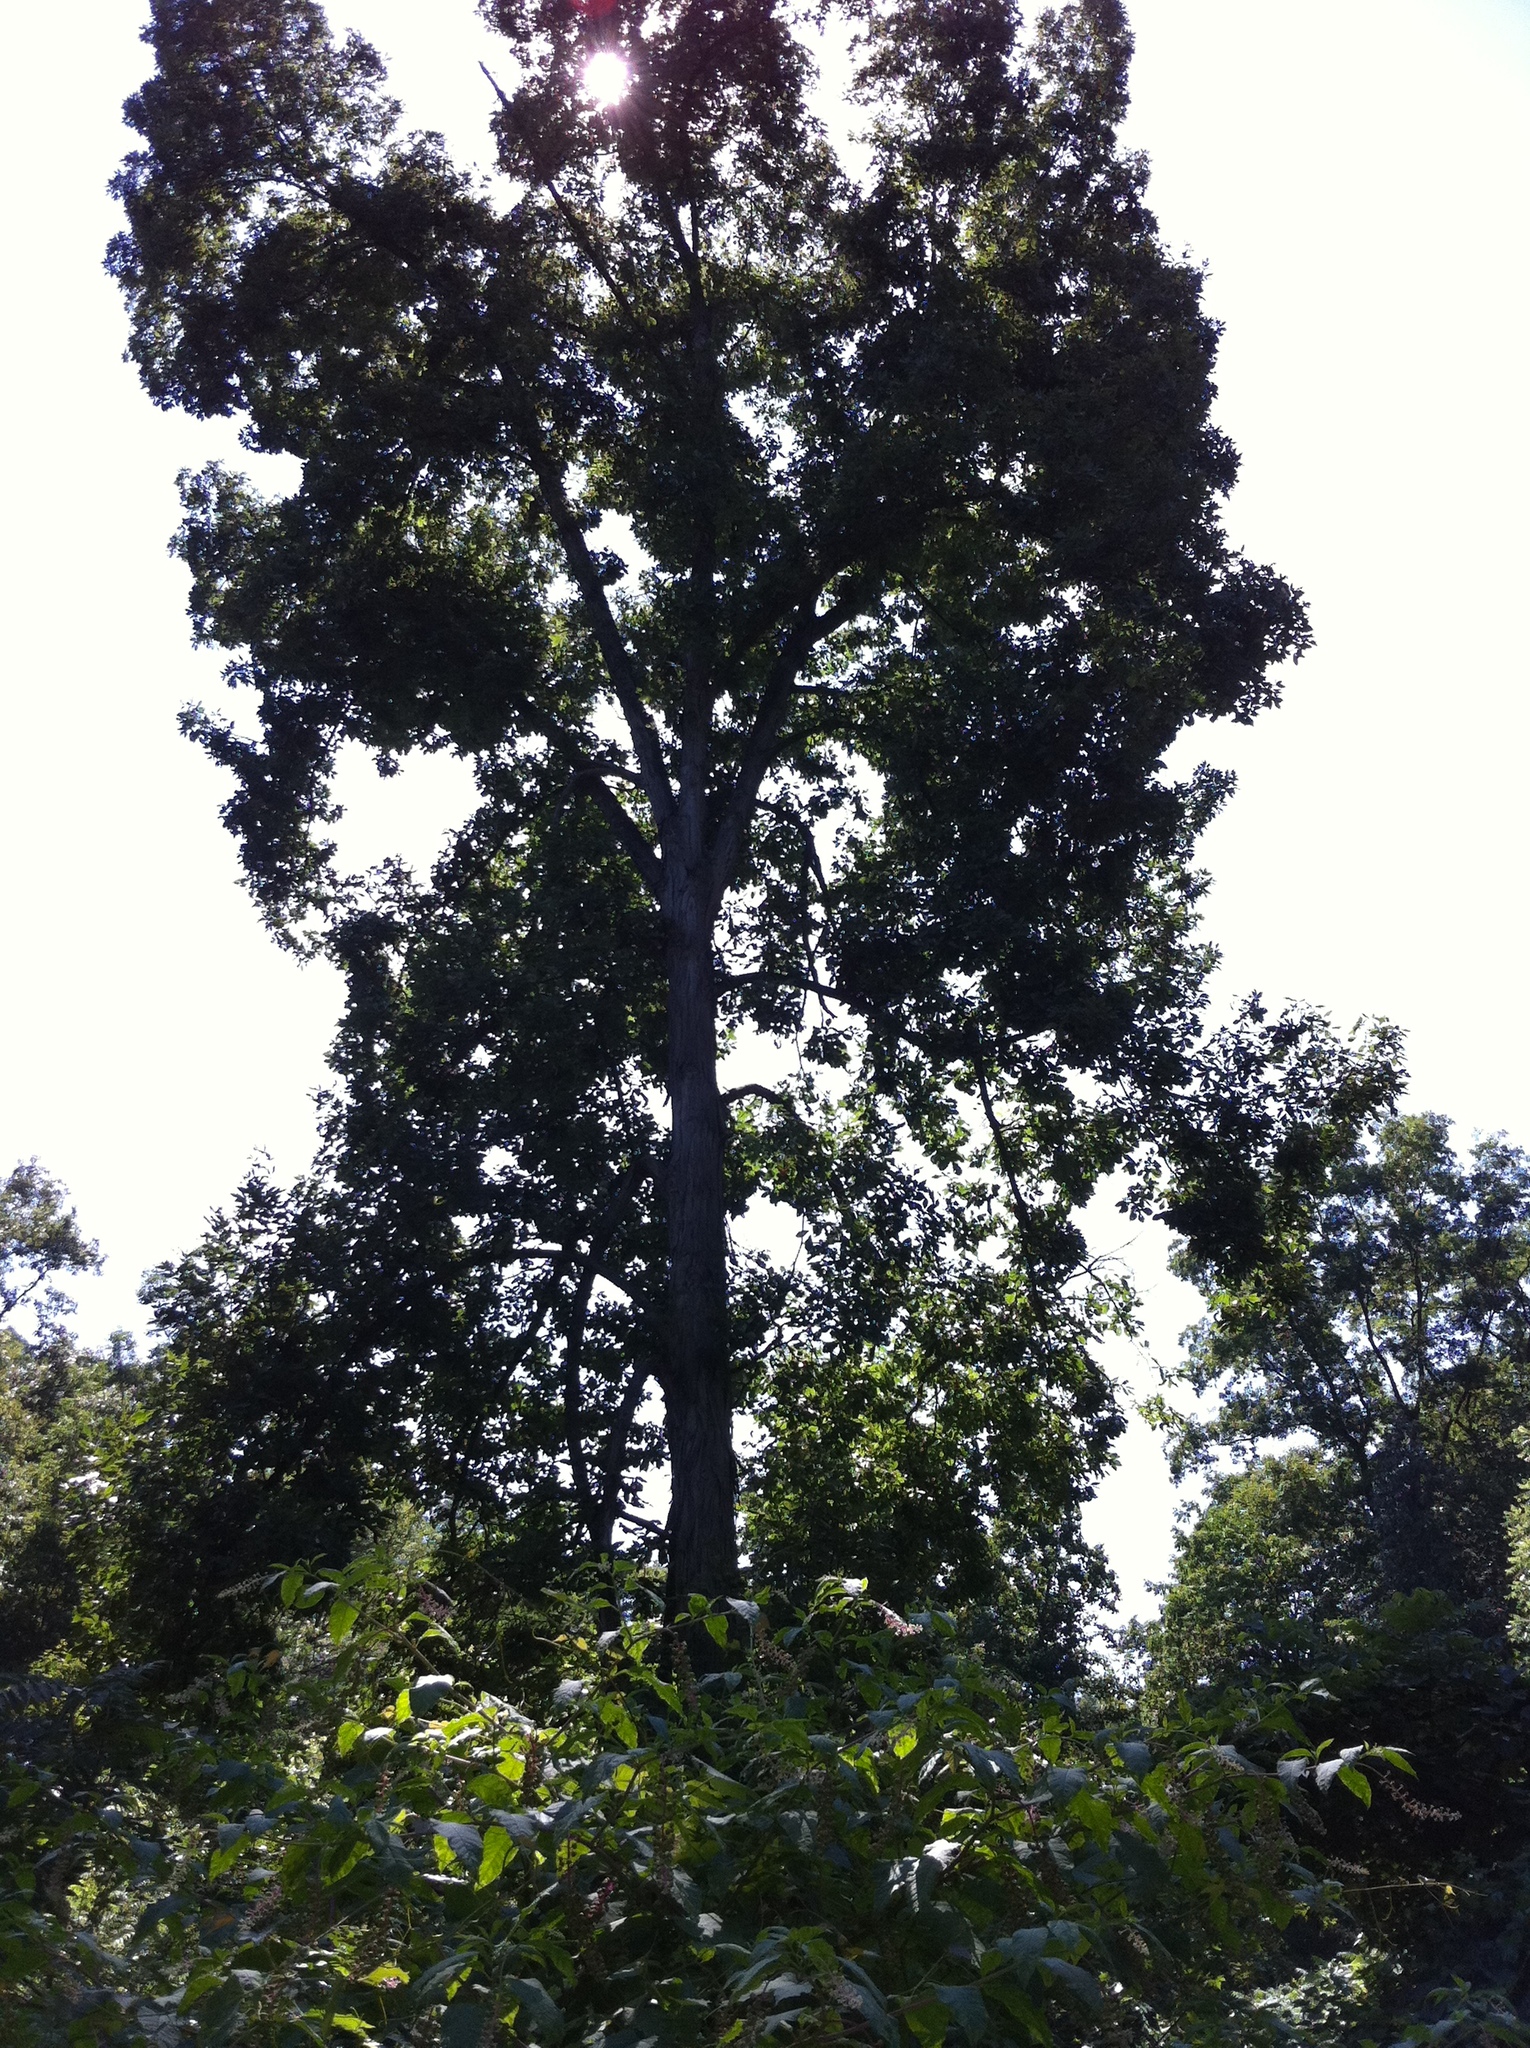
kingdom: Plantae
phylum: Tracheophyta
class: Magnoliopsida
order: Caryophyllales
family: Phytolaccaceae
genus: Phytolacca
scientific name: Phytolacca americana
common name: American pokeweed
